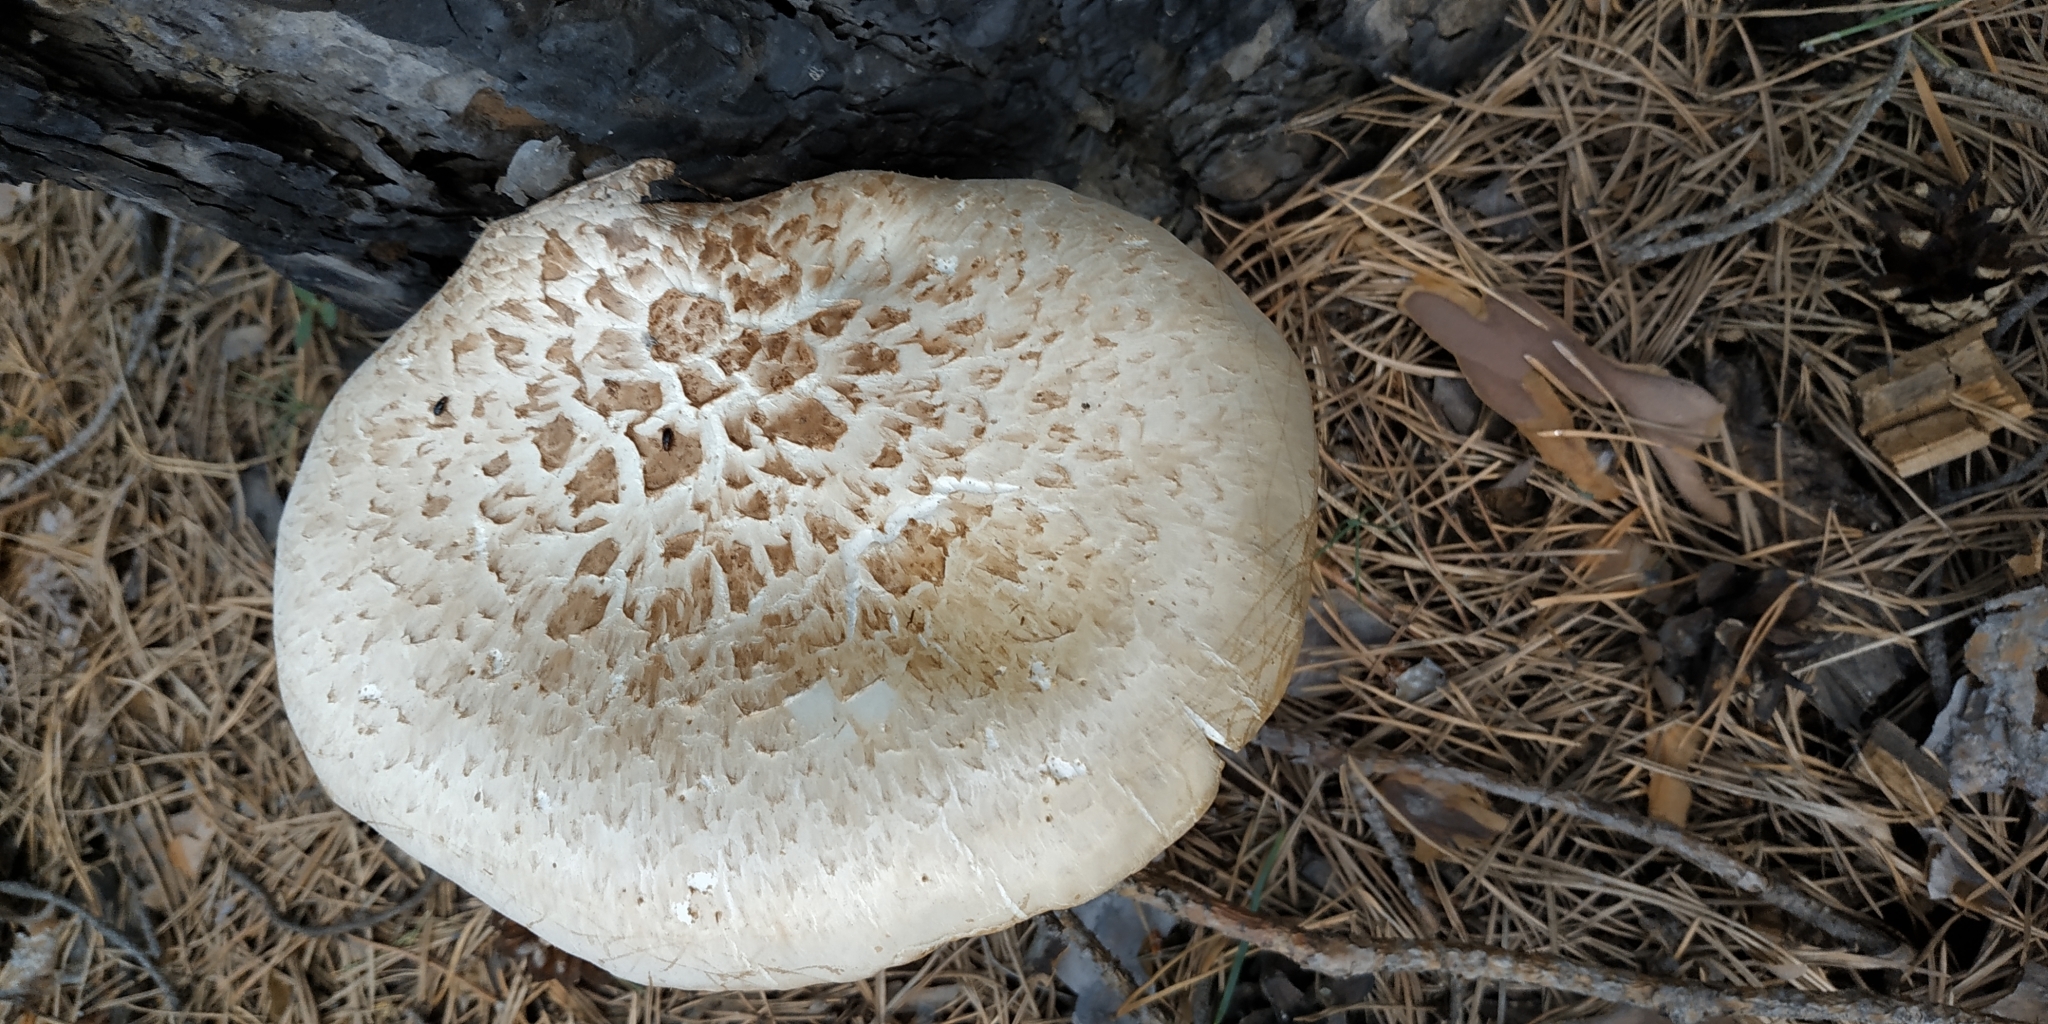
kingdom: Fungi
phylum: Basidiomycota
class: Agaricomycetes
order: Gloeophyllales
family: Gloeophyllaceae
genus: Neolentinus
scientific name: Neolentinus lepideus
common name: Scaly sawgill
